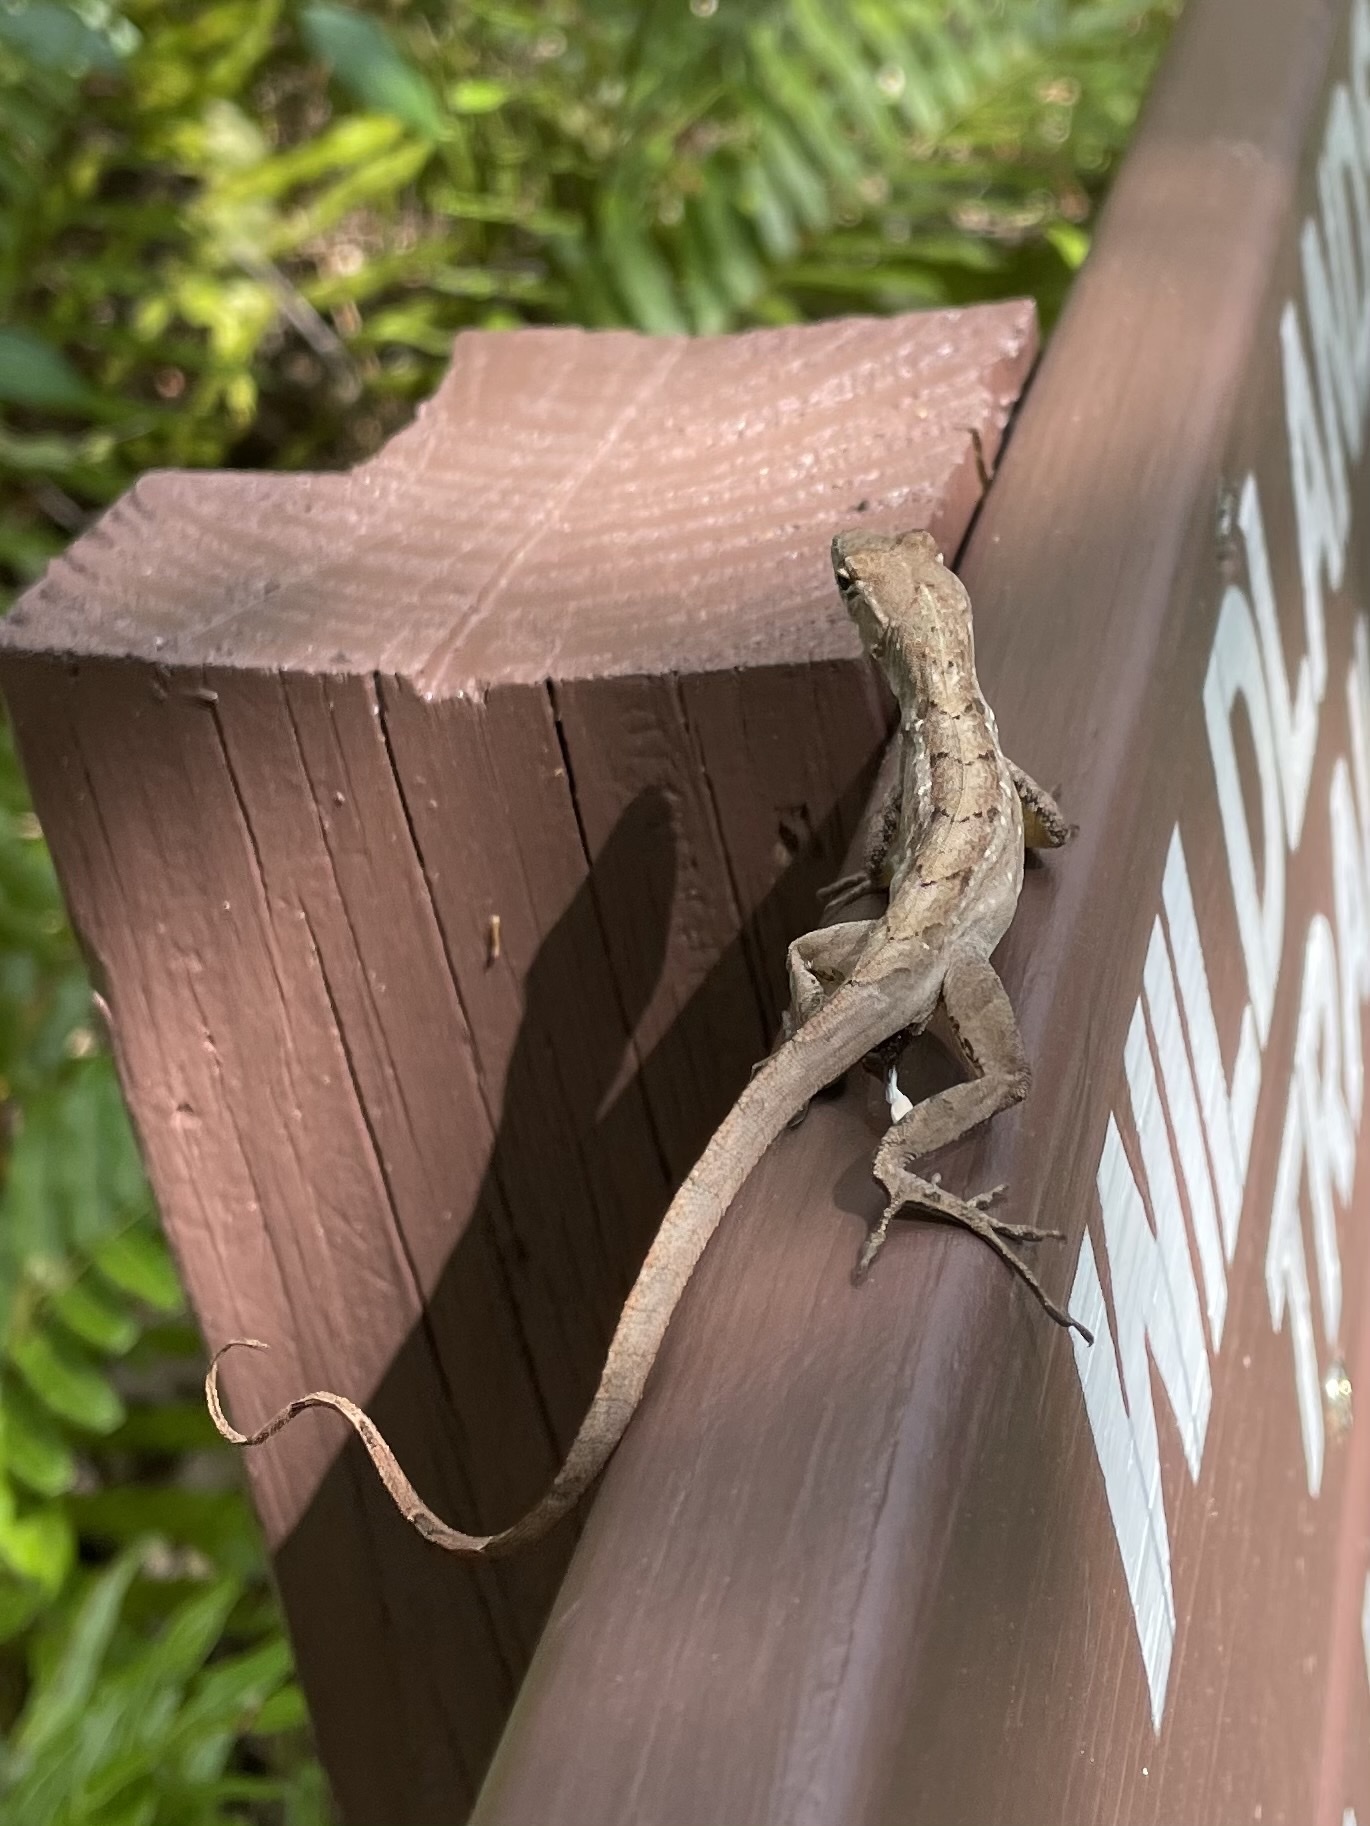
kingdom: Animalia
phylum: Chordata
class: Squamata
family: Dactyloidae
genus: Anolis
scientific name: Anolis sagrei
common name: Brown anole
